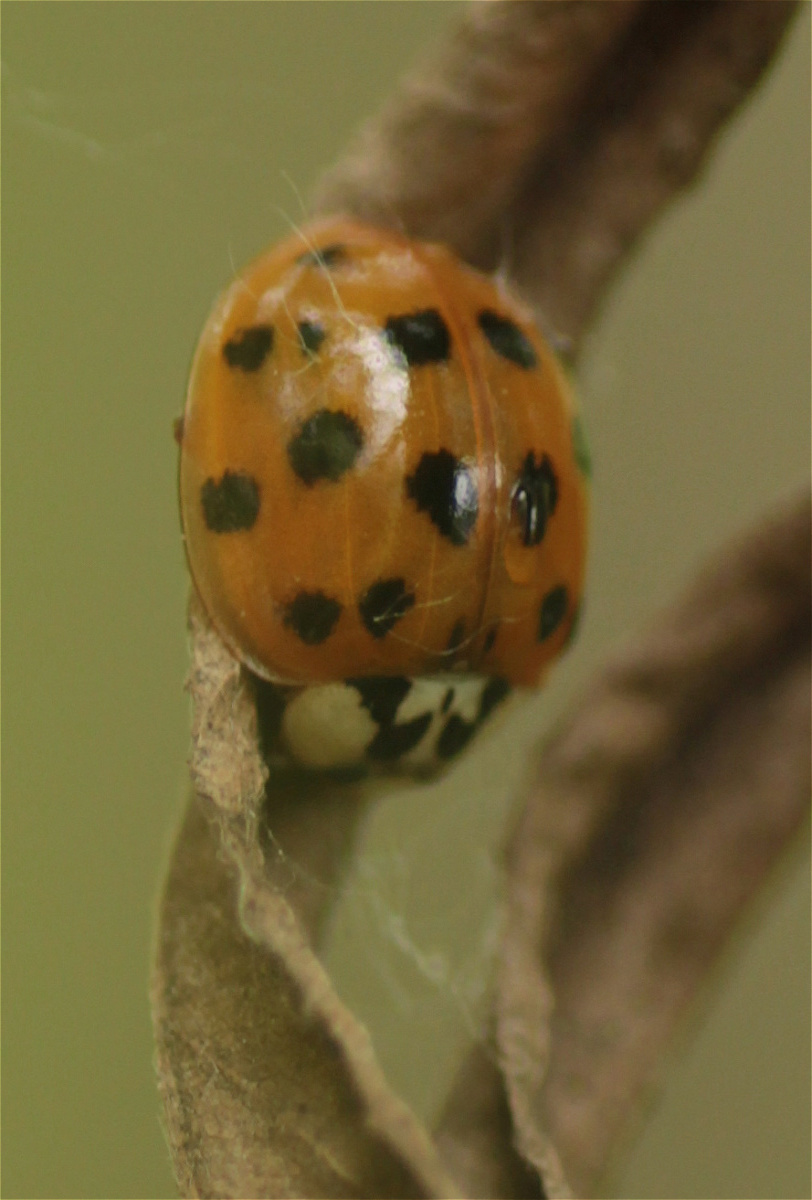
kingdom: Animalia
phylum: Arthropoda
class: Insecta
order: Coleoptera
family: Coccinellidae
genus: Harmonia
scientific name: Harmonia axyridis
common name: Harlequin ladybird
